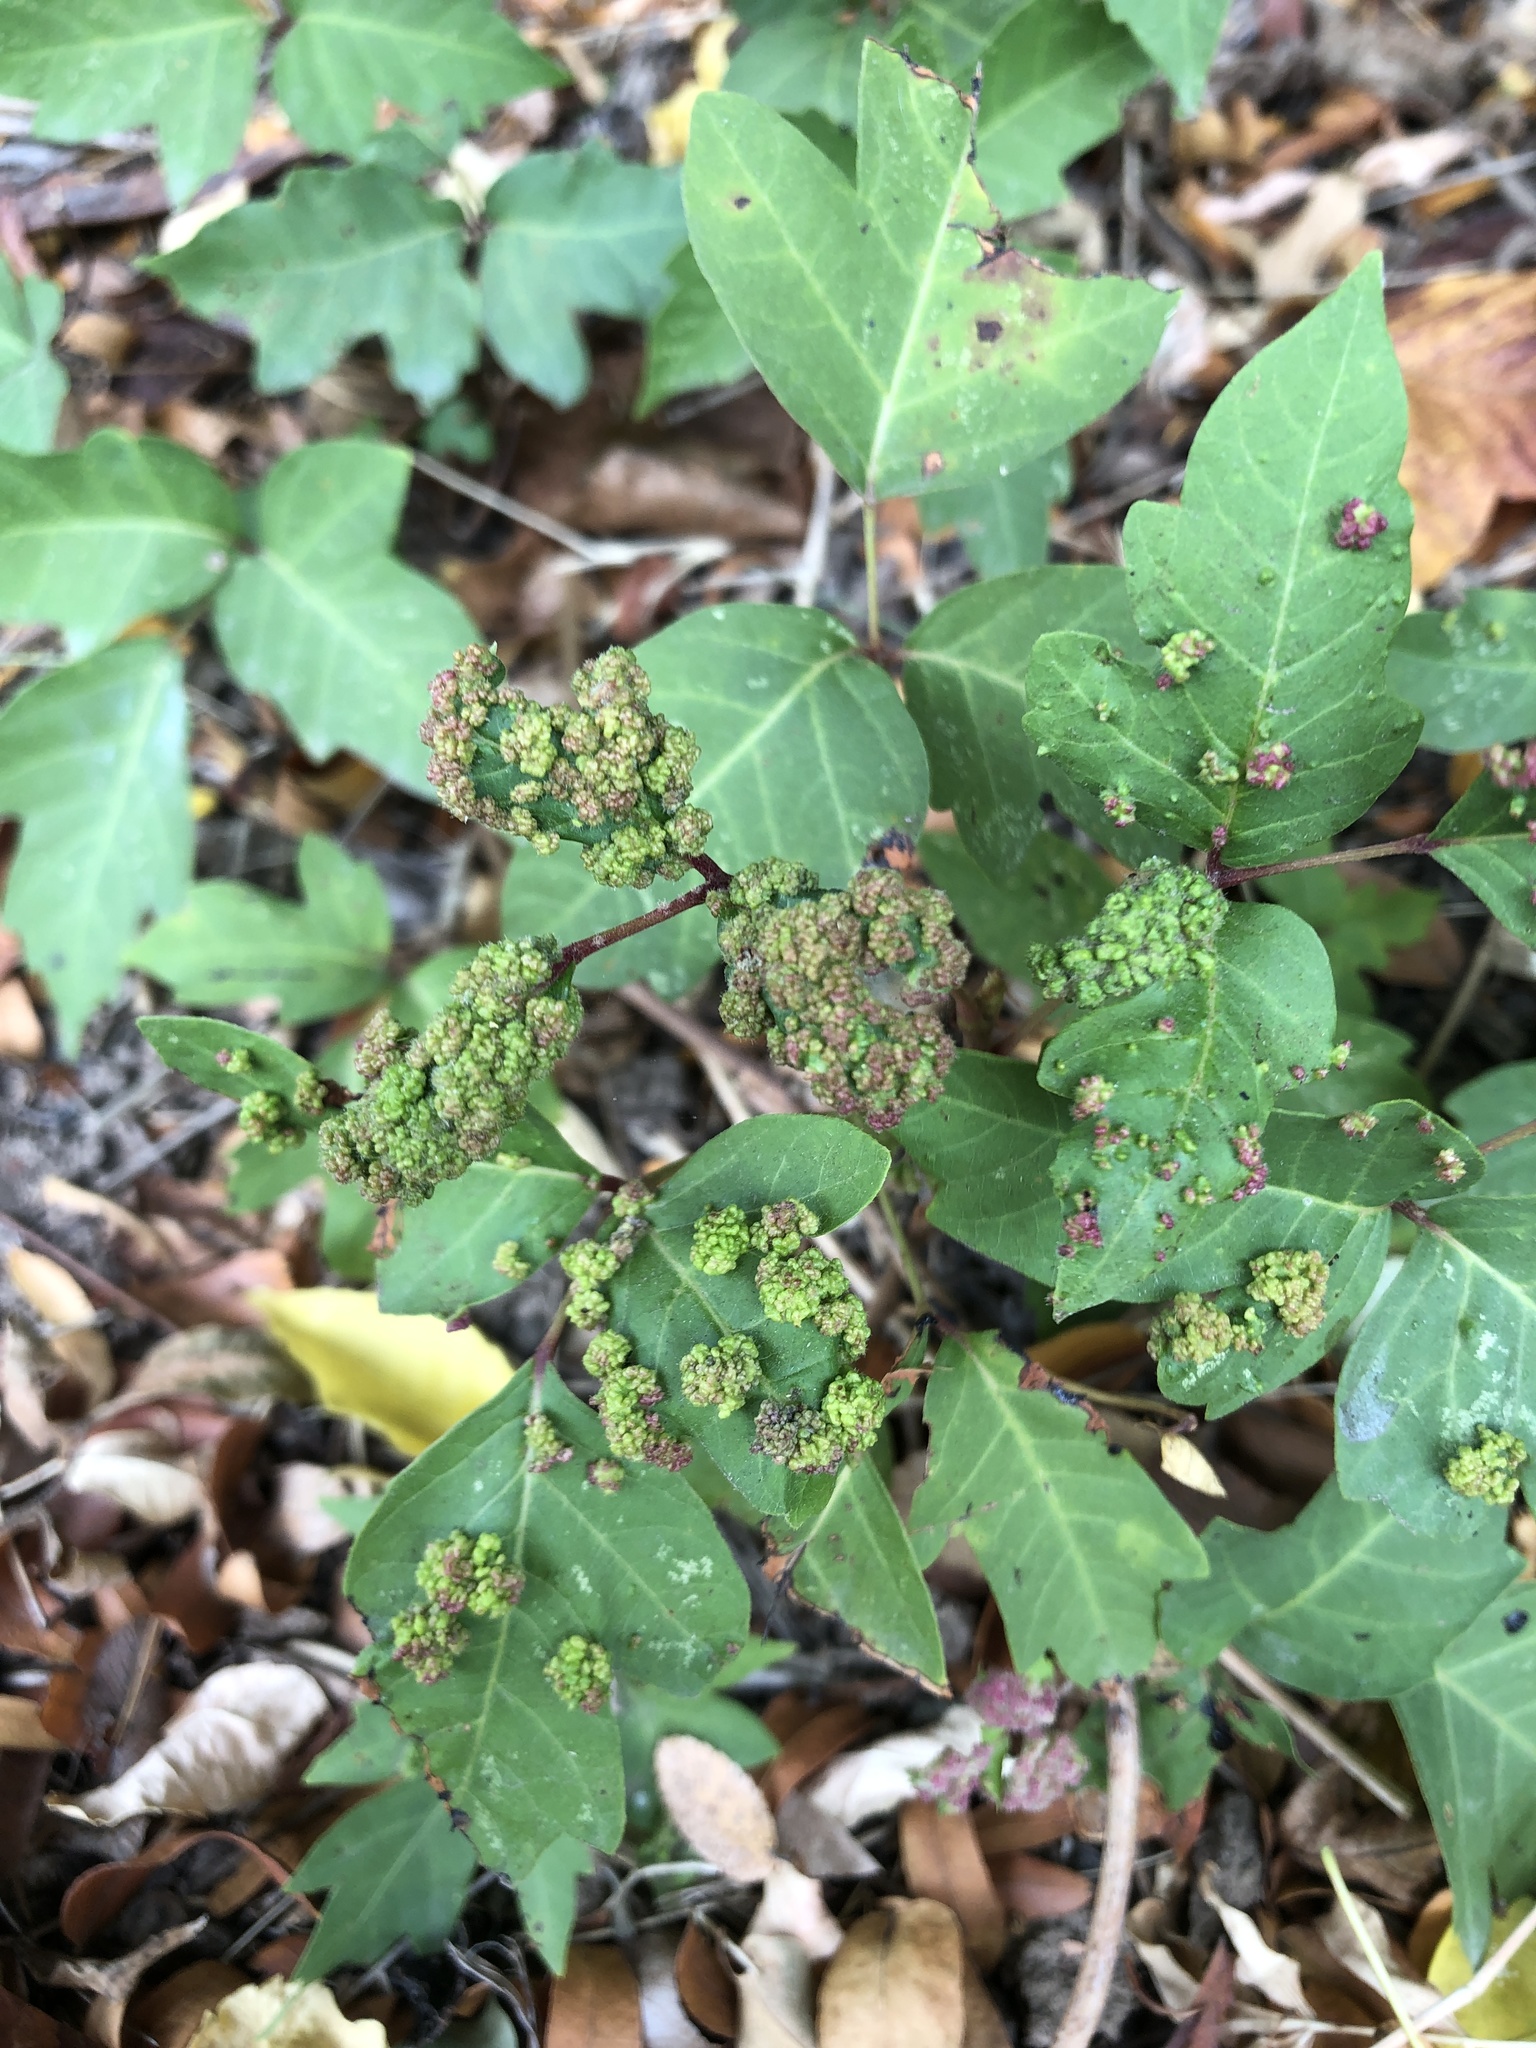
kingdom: Animalia
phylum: Arthropoda
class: Arachnida
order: Trombidiformes
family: Eriophyidae
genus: Aculops
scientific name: Aculops
